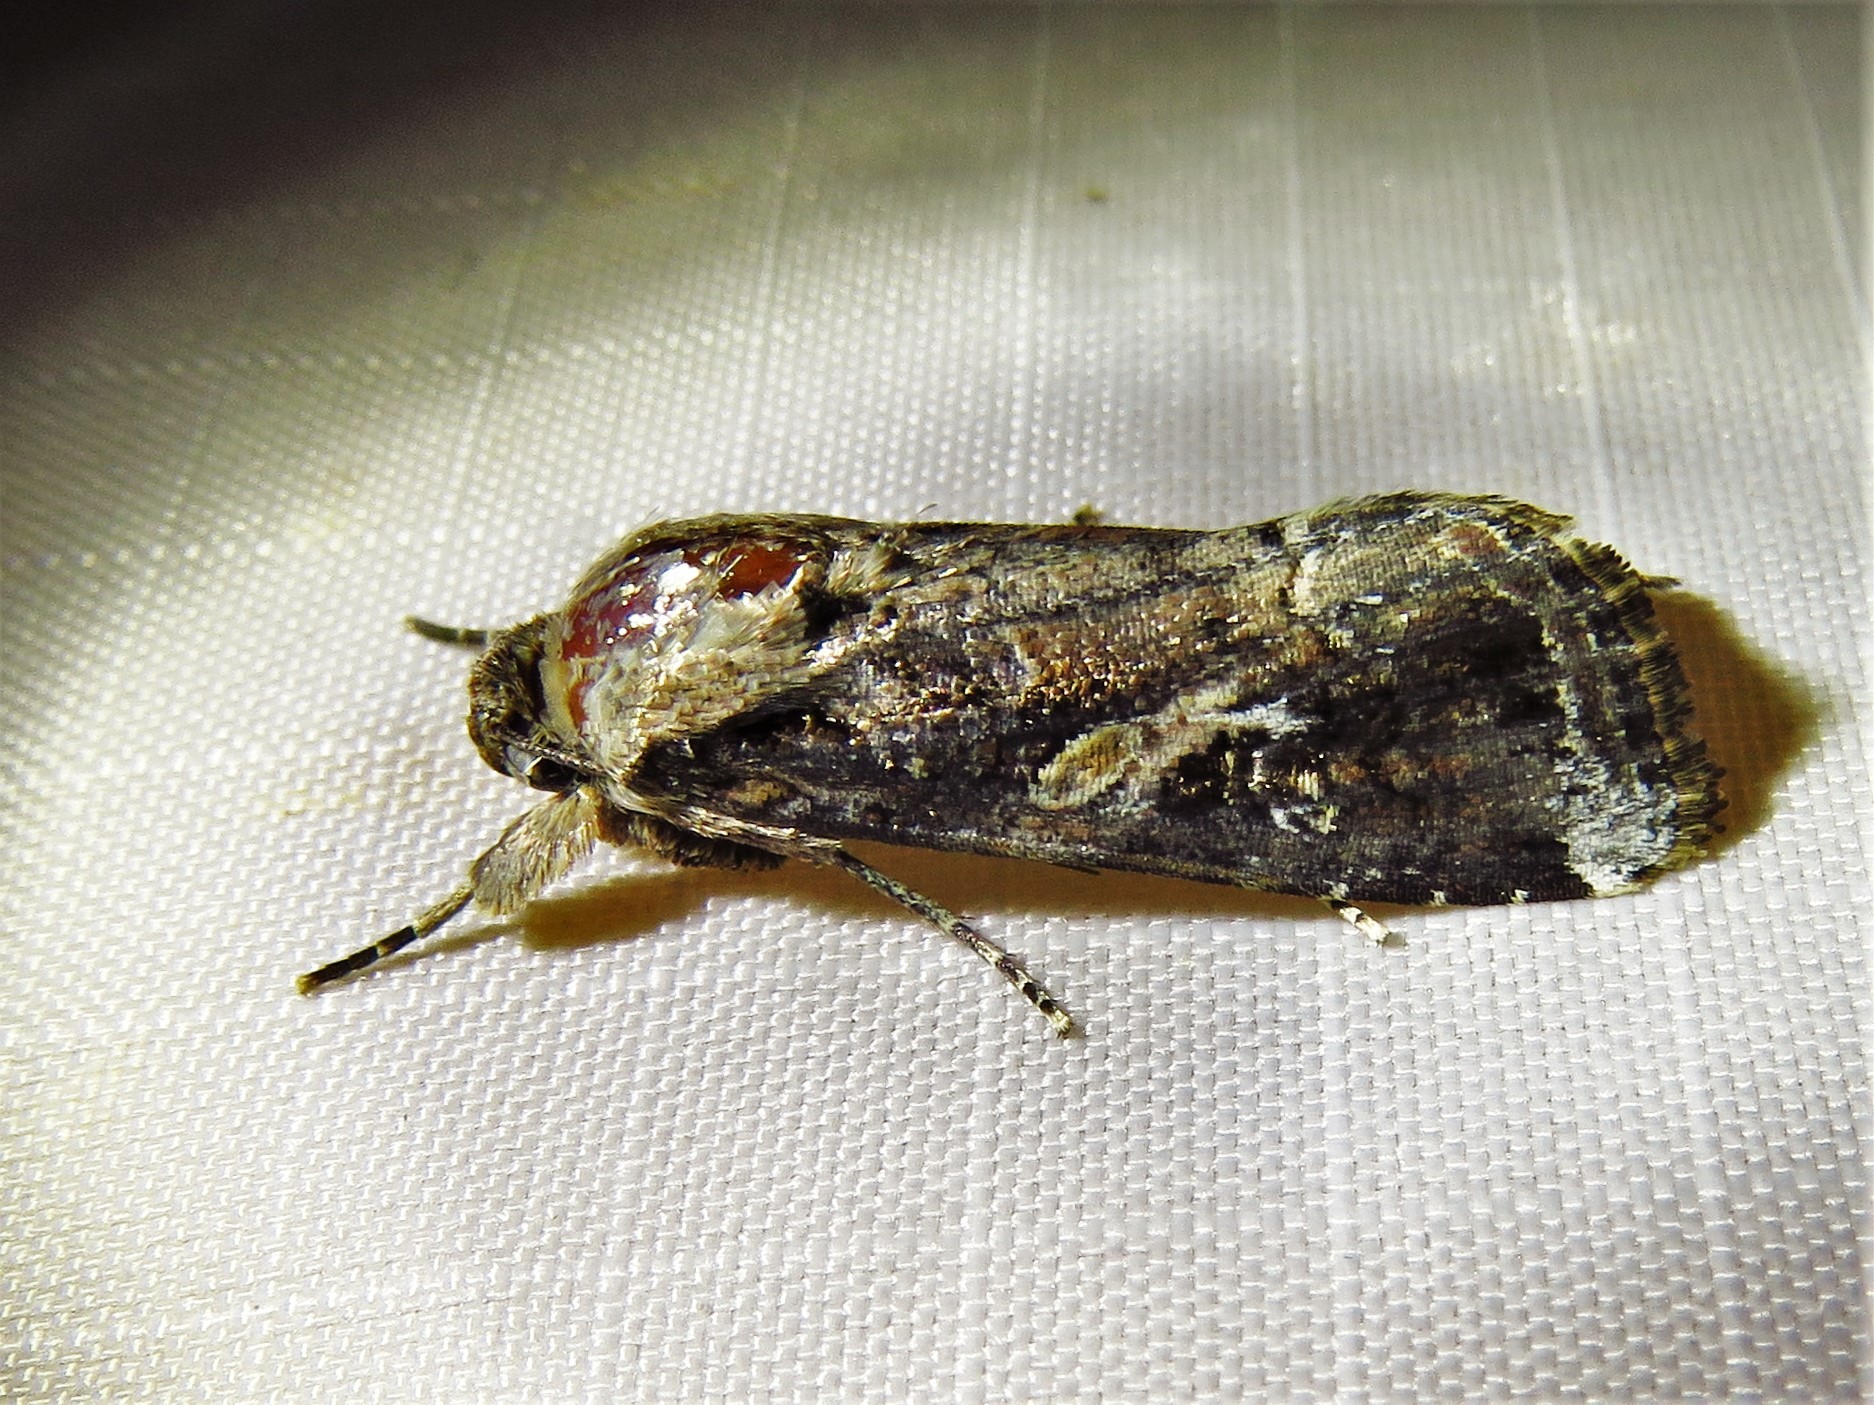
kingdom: Animalia
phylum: Arthropoda
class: Insecta
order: Lepidoptera
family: Noctuidae
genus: Spodoptera
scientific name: Spodoptera frugiperda
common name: Fall armyworm
